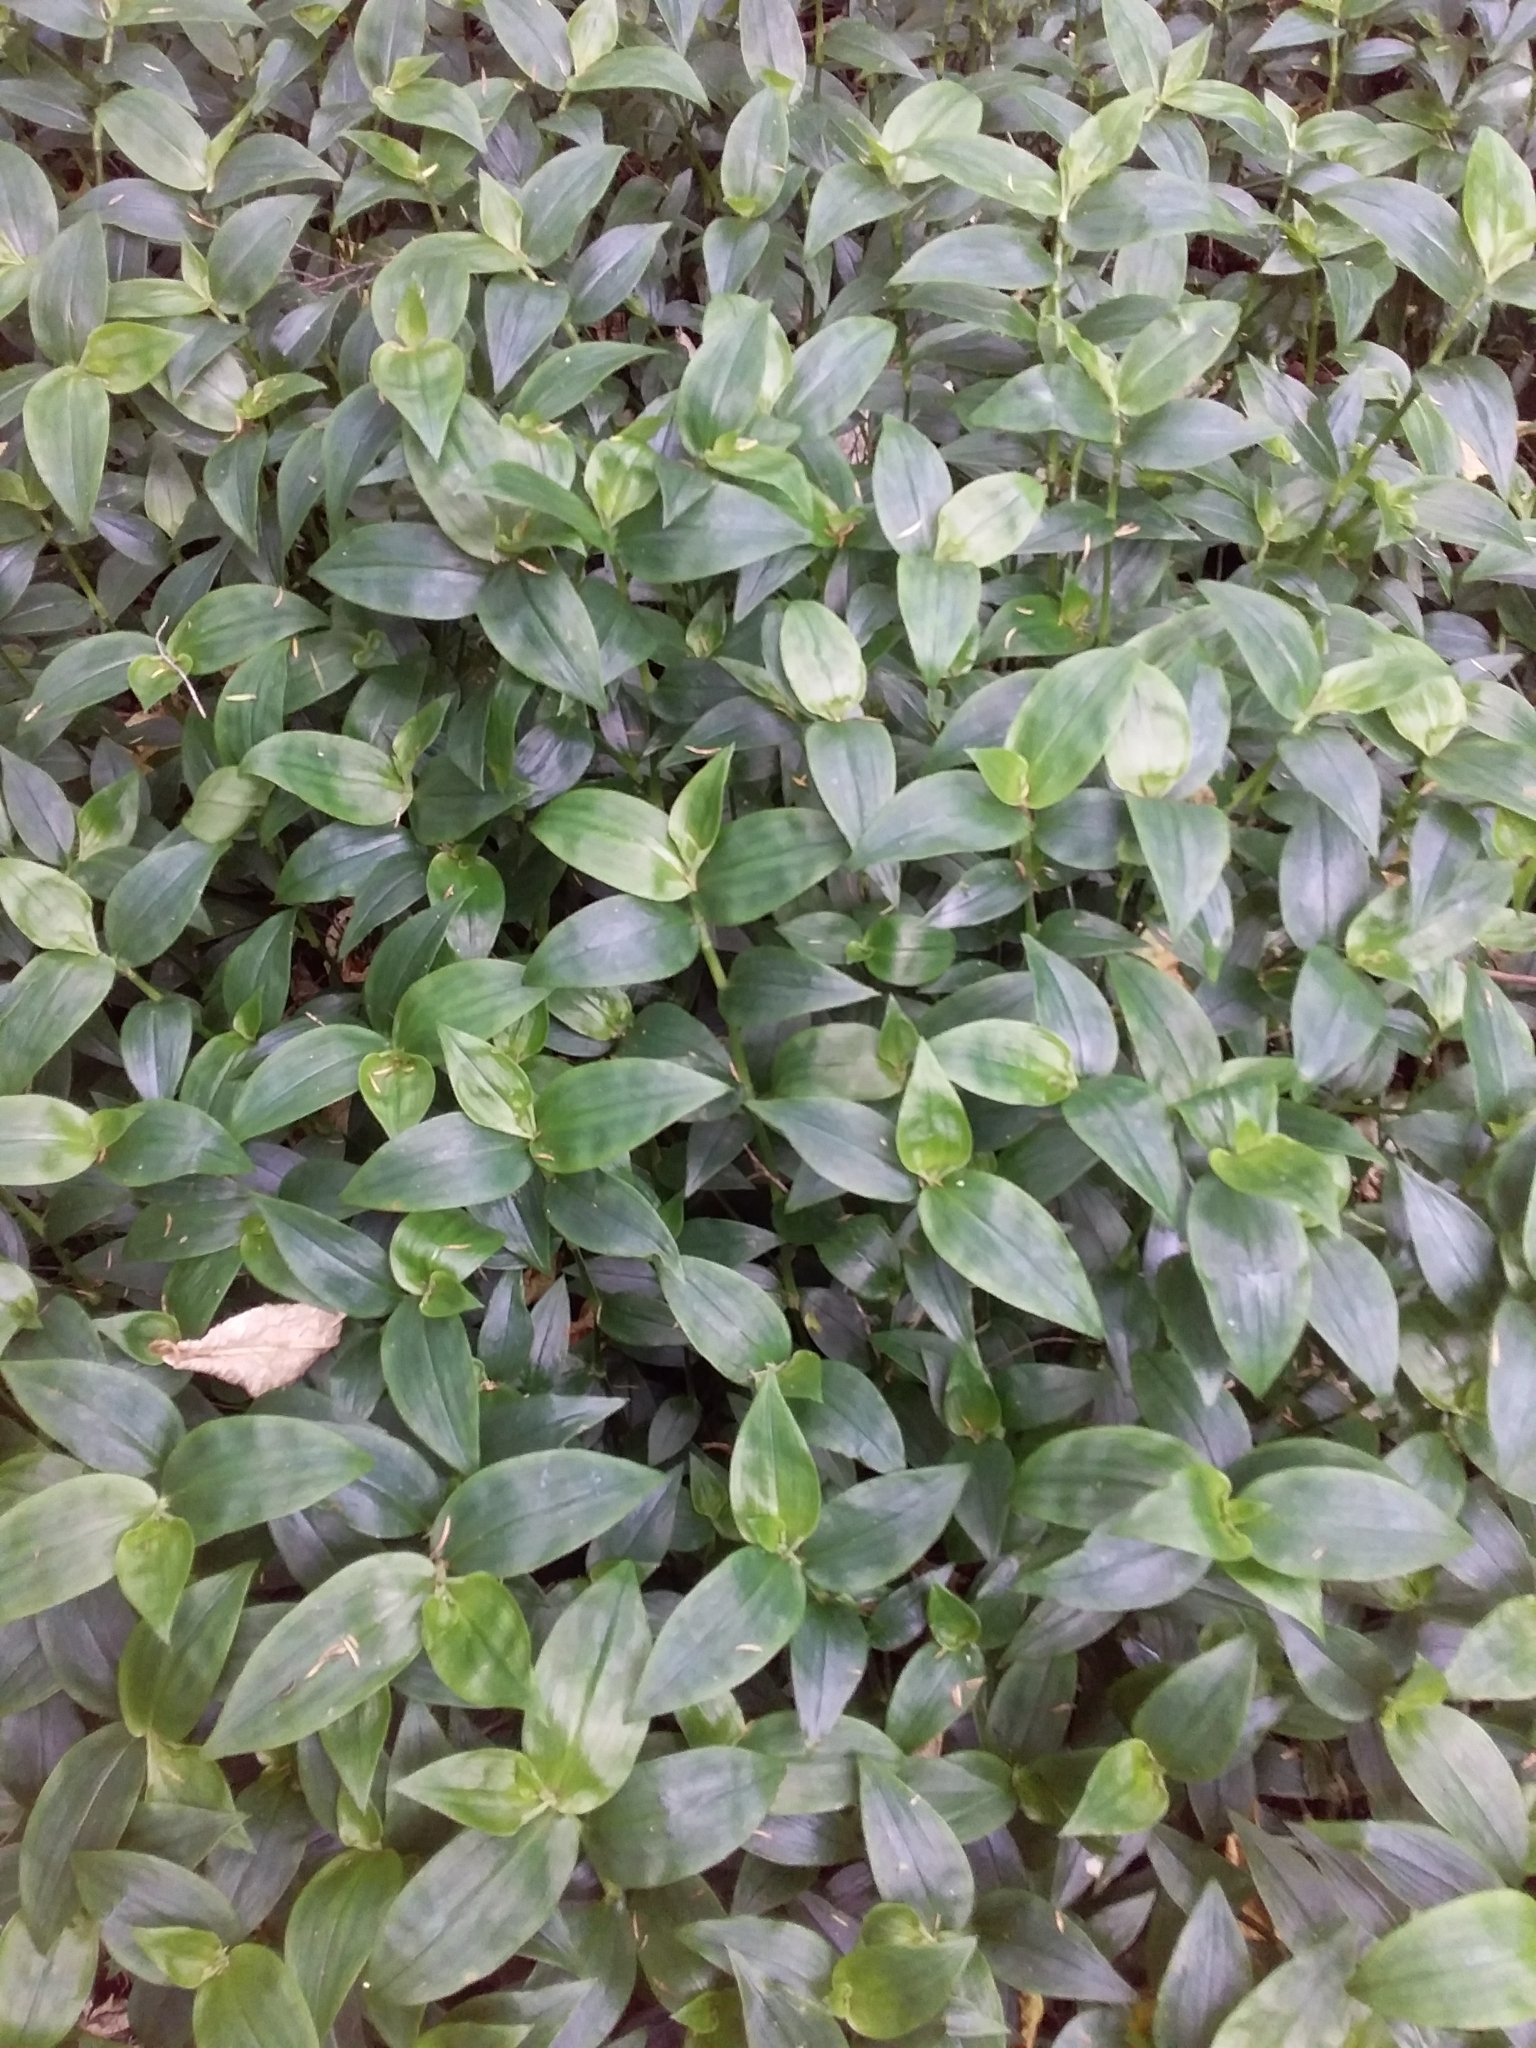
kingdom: Plantae
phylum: Tracheophyta
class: Liliopsida
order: Commelinales
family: Commelinaceae
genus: Tradescantia
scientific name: Tradescantia fluminensis
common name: Wandering-jew
